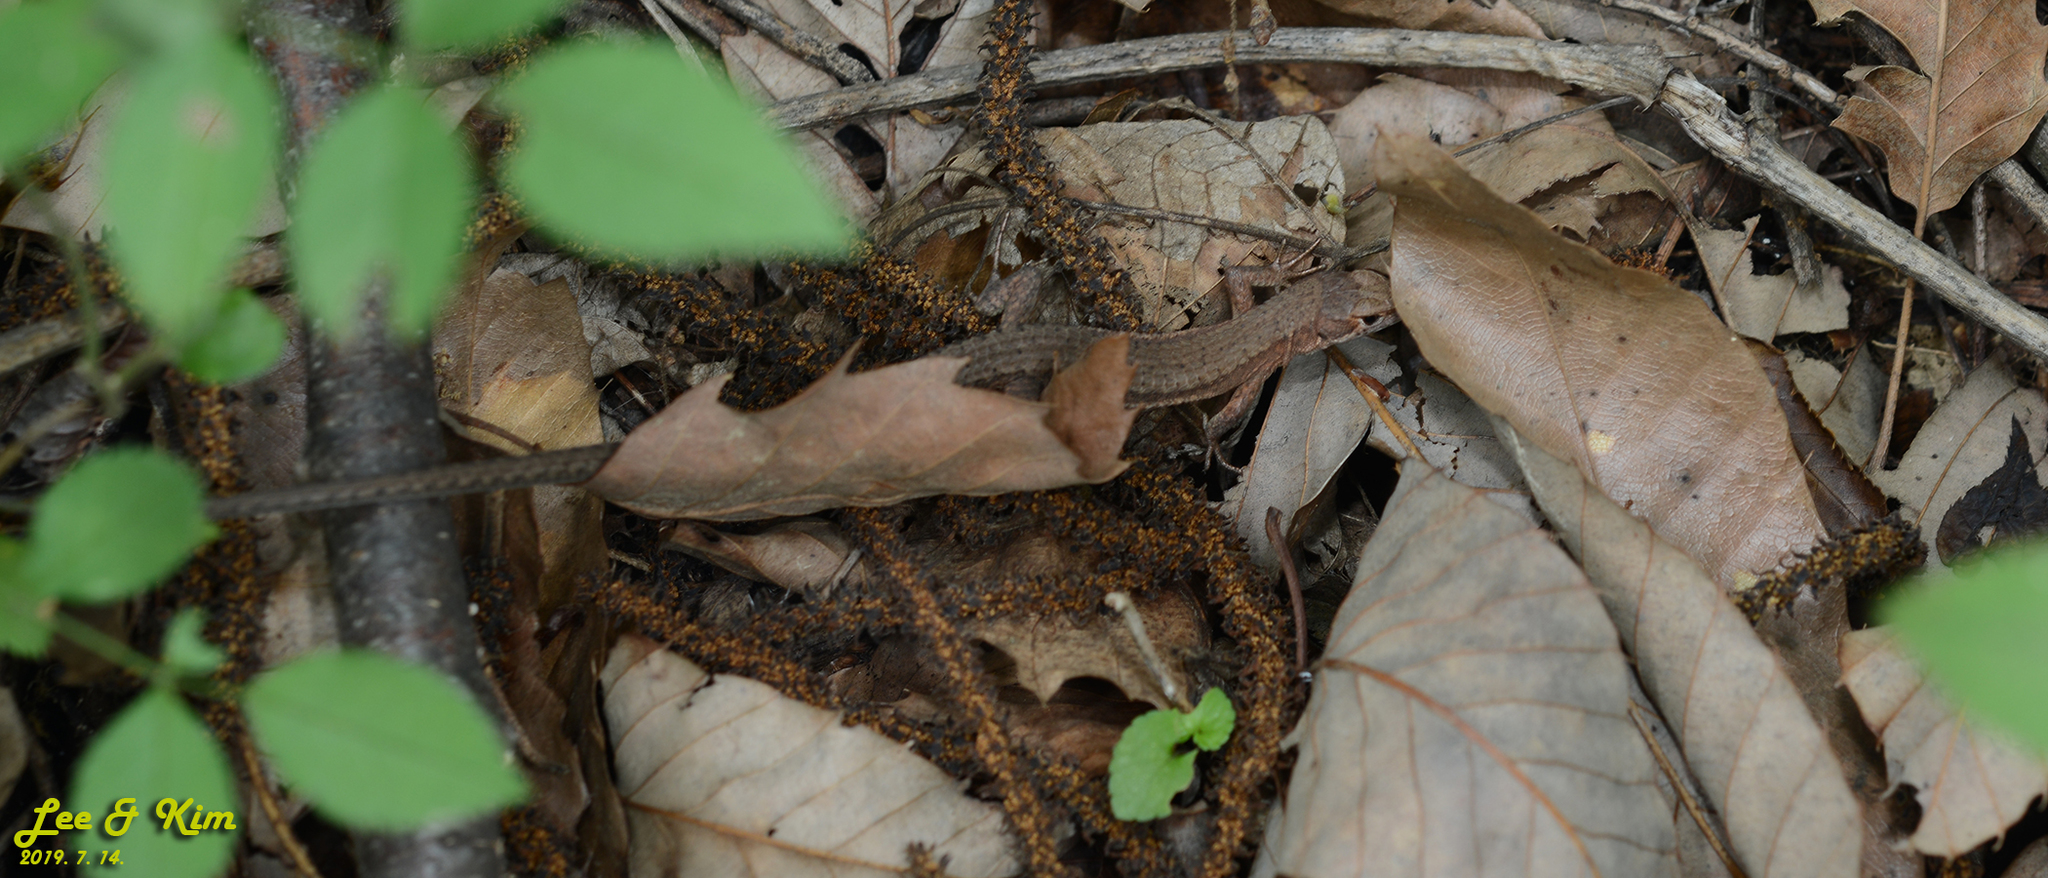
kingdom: Animalia
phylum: Chordata
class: Squamata
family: Lacertidae
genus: Takydromus
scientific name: Takydromus amurensis
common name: Amur grass lizard
